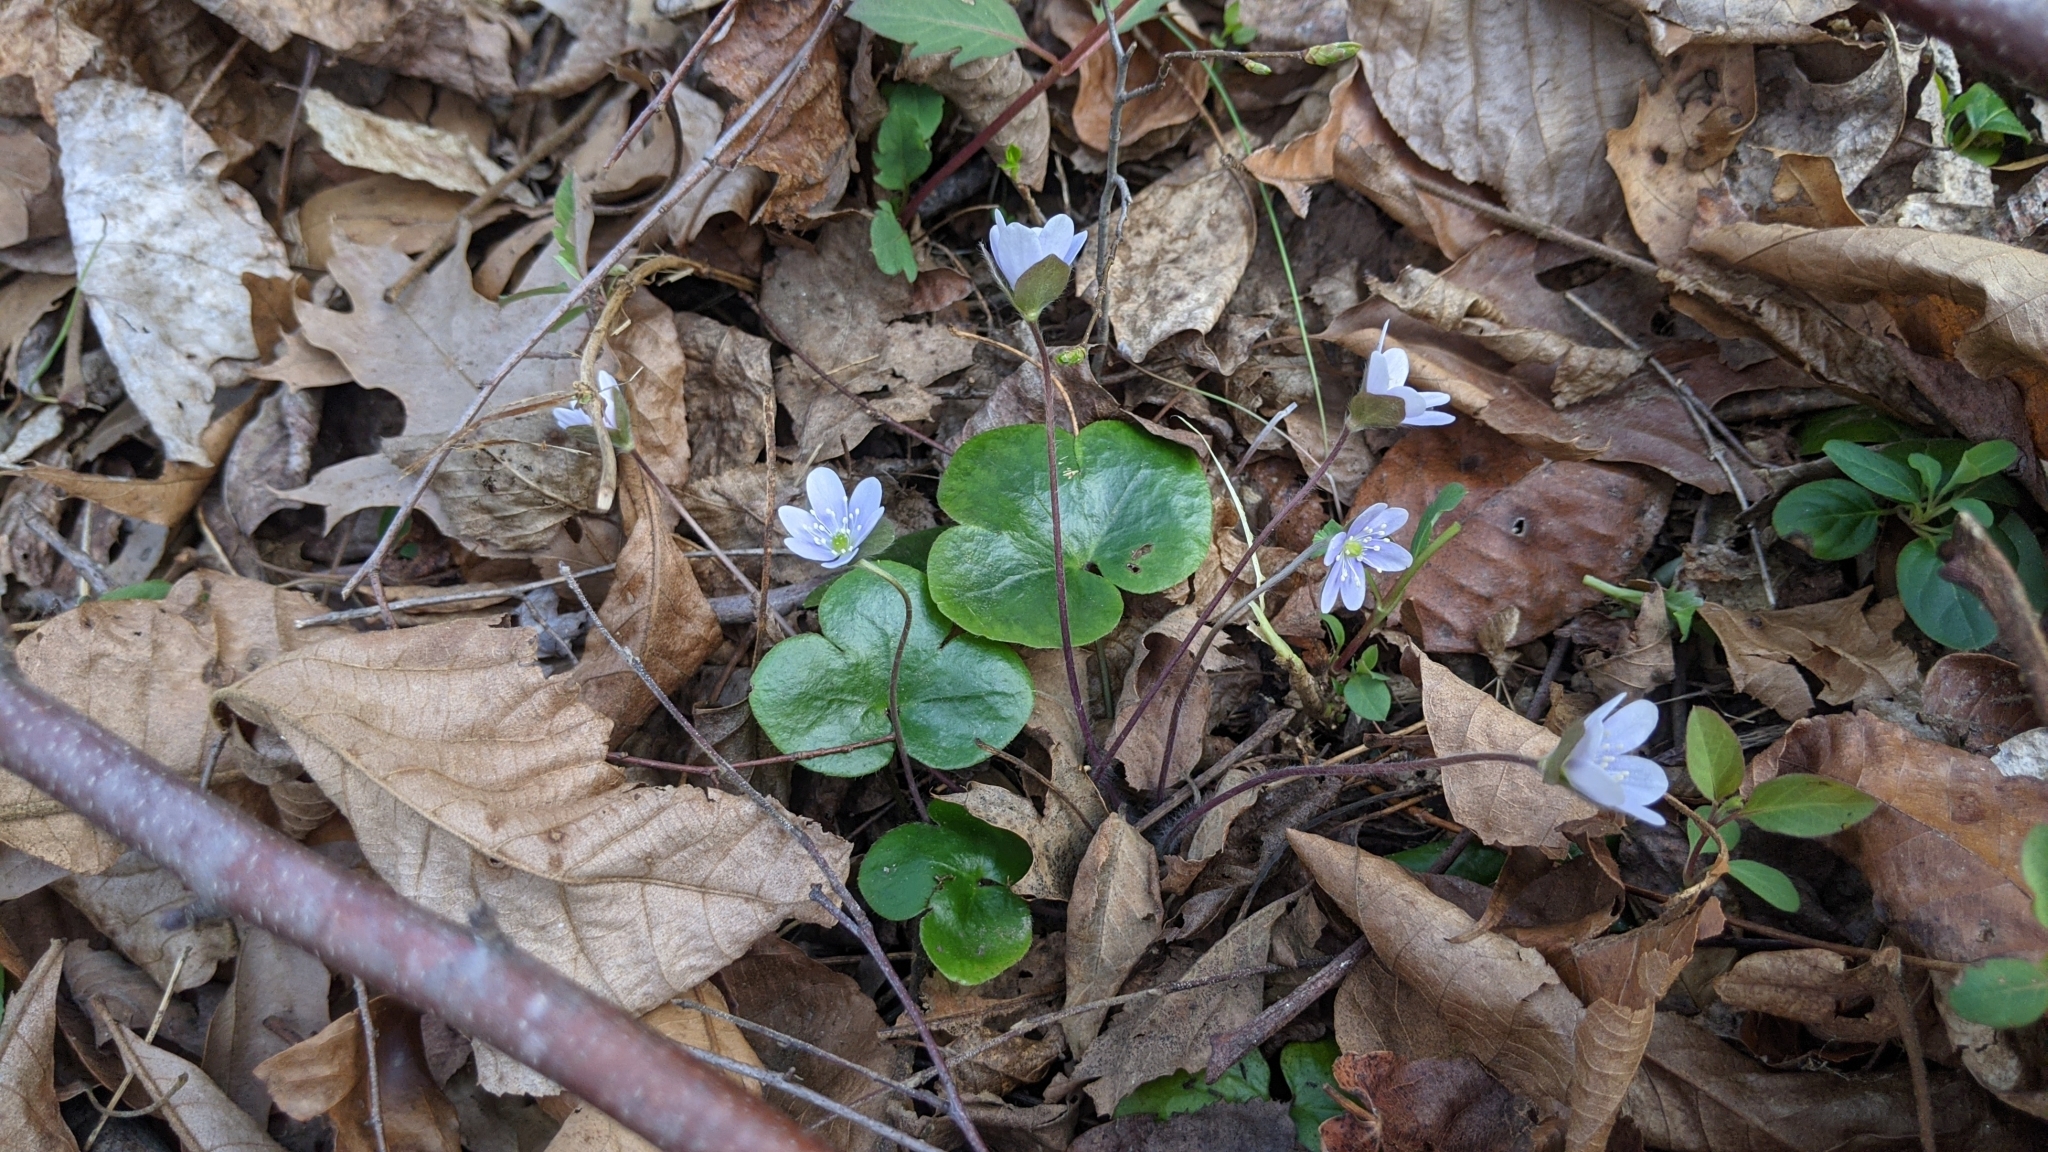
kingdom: Plantae
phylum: Tracheophyta
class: Magnoliopsida
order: Ranunculales
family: Ranunculaceae
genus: Hepatica
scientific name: Hepatica americana
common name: American hepatica
